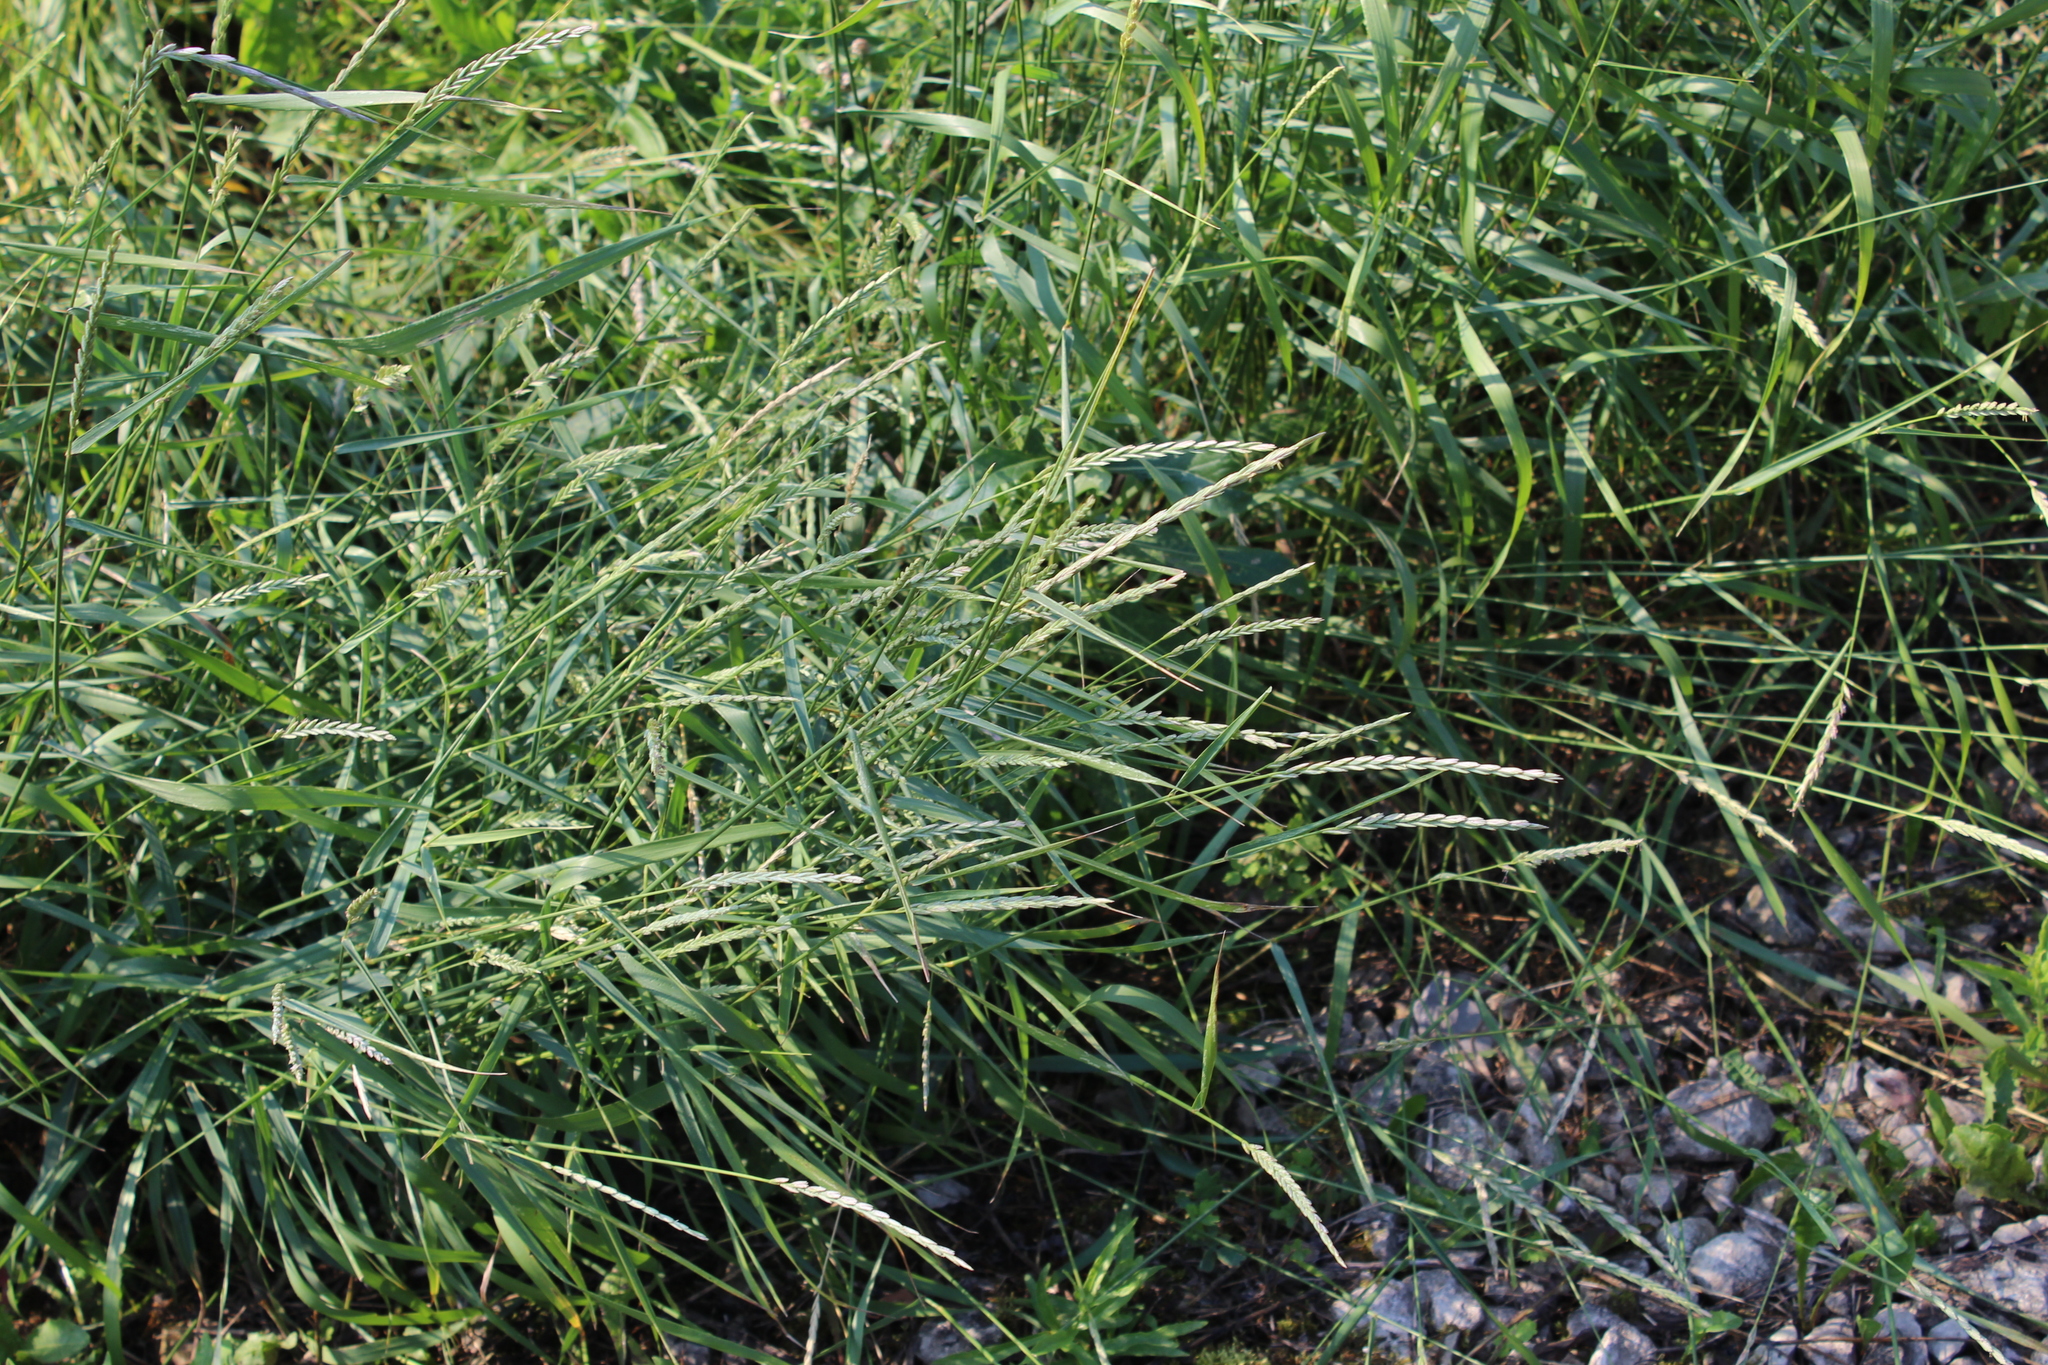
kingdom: Plantae
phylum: Tracheophyta
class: Liliopsida
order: Poales
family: Poaceae
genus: Elymus
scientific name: Elymus repens
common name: Quackgrass
